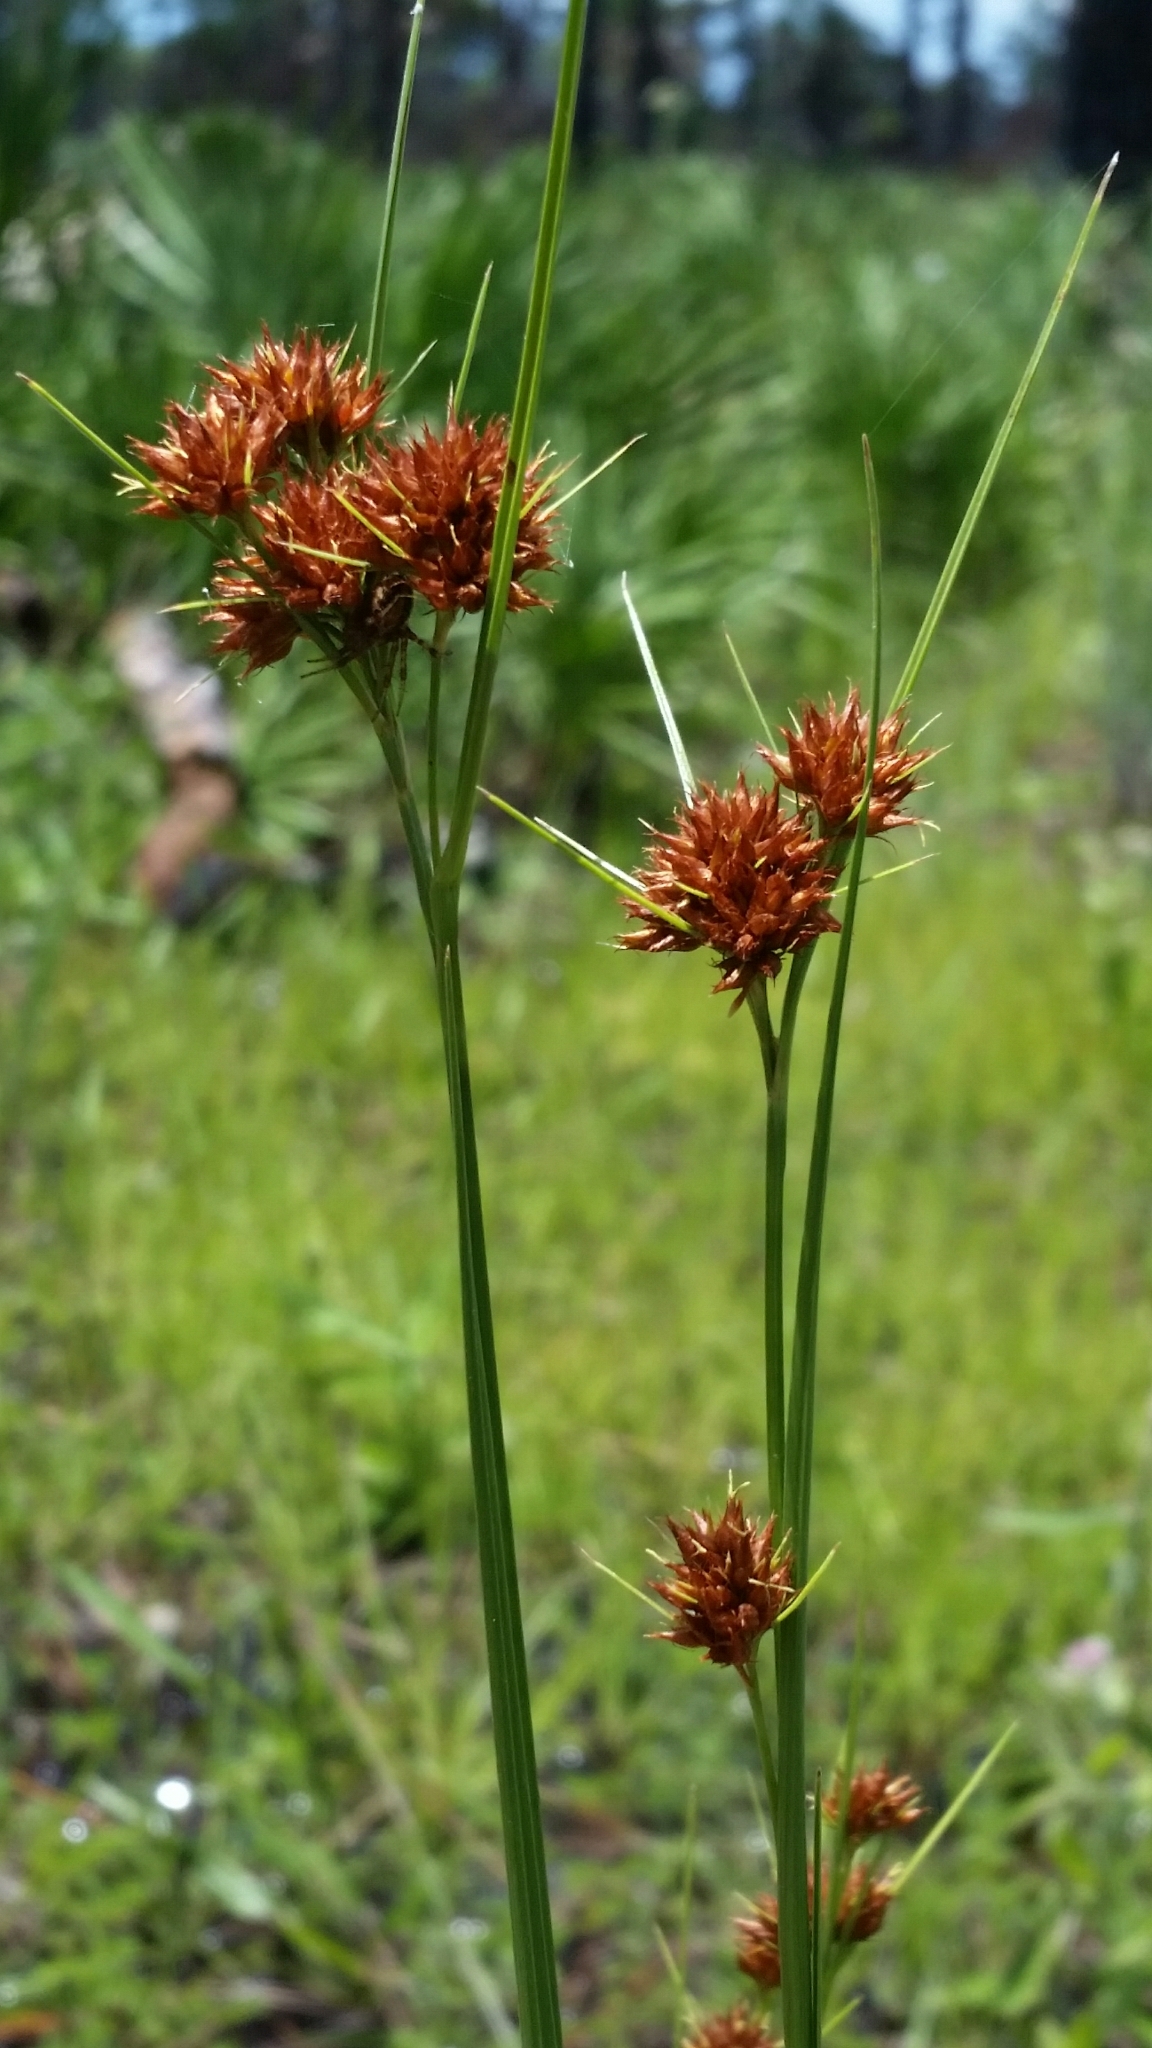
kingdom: Plantae
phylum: Tracheophyta
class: Liliopsida
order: Poales
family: Cyperaceae
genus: Rhynchospora
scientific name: Rhynchospora fascicularis
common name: Fascicled beak sedge
